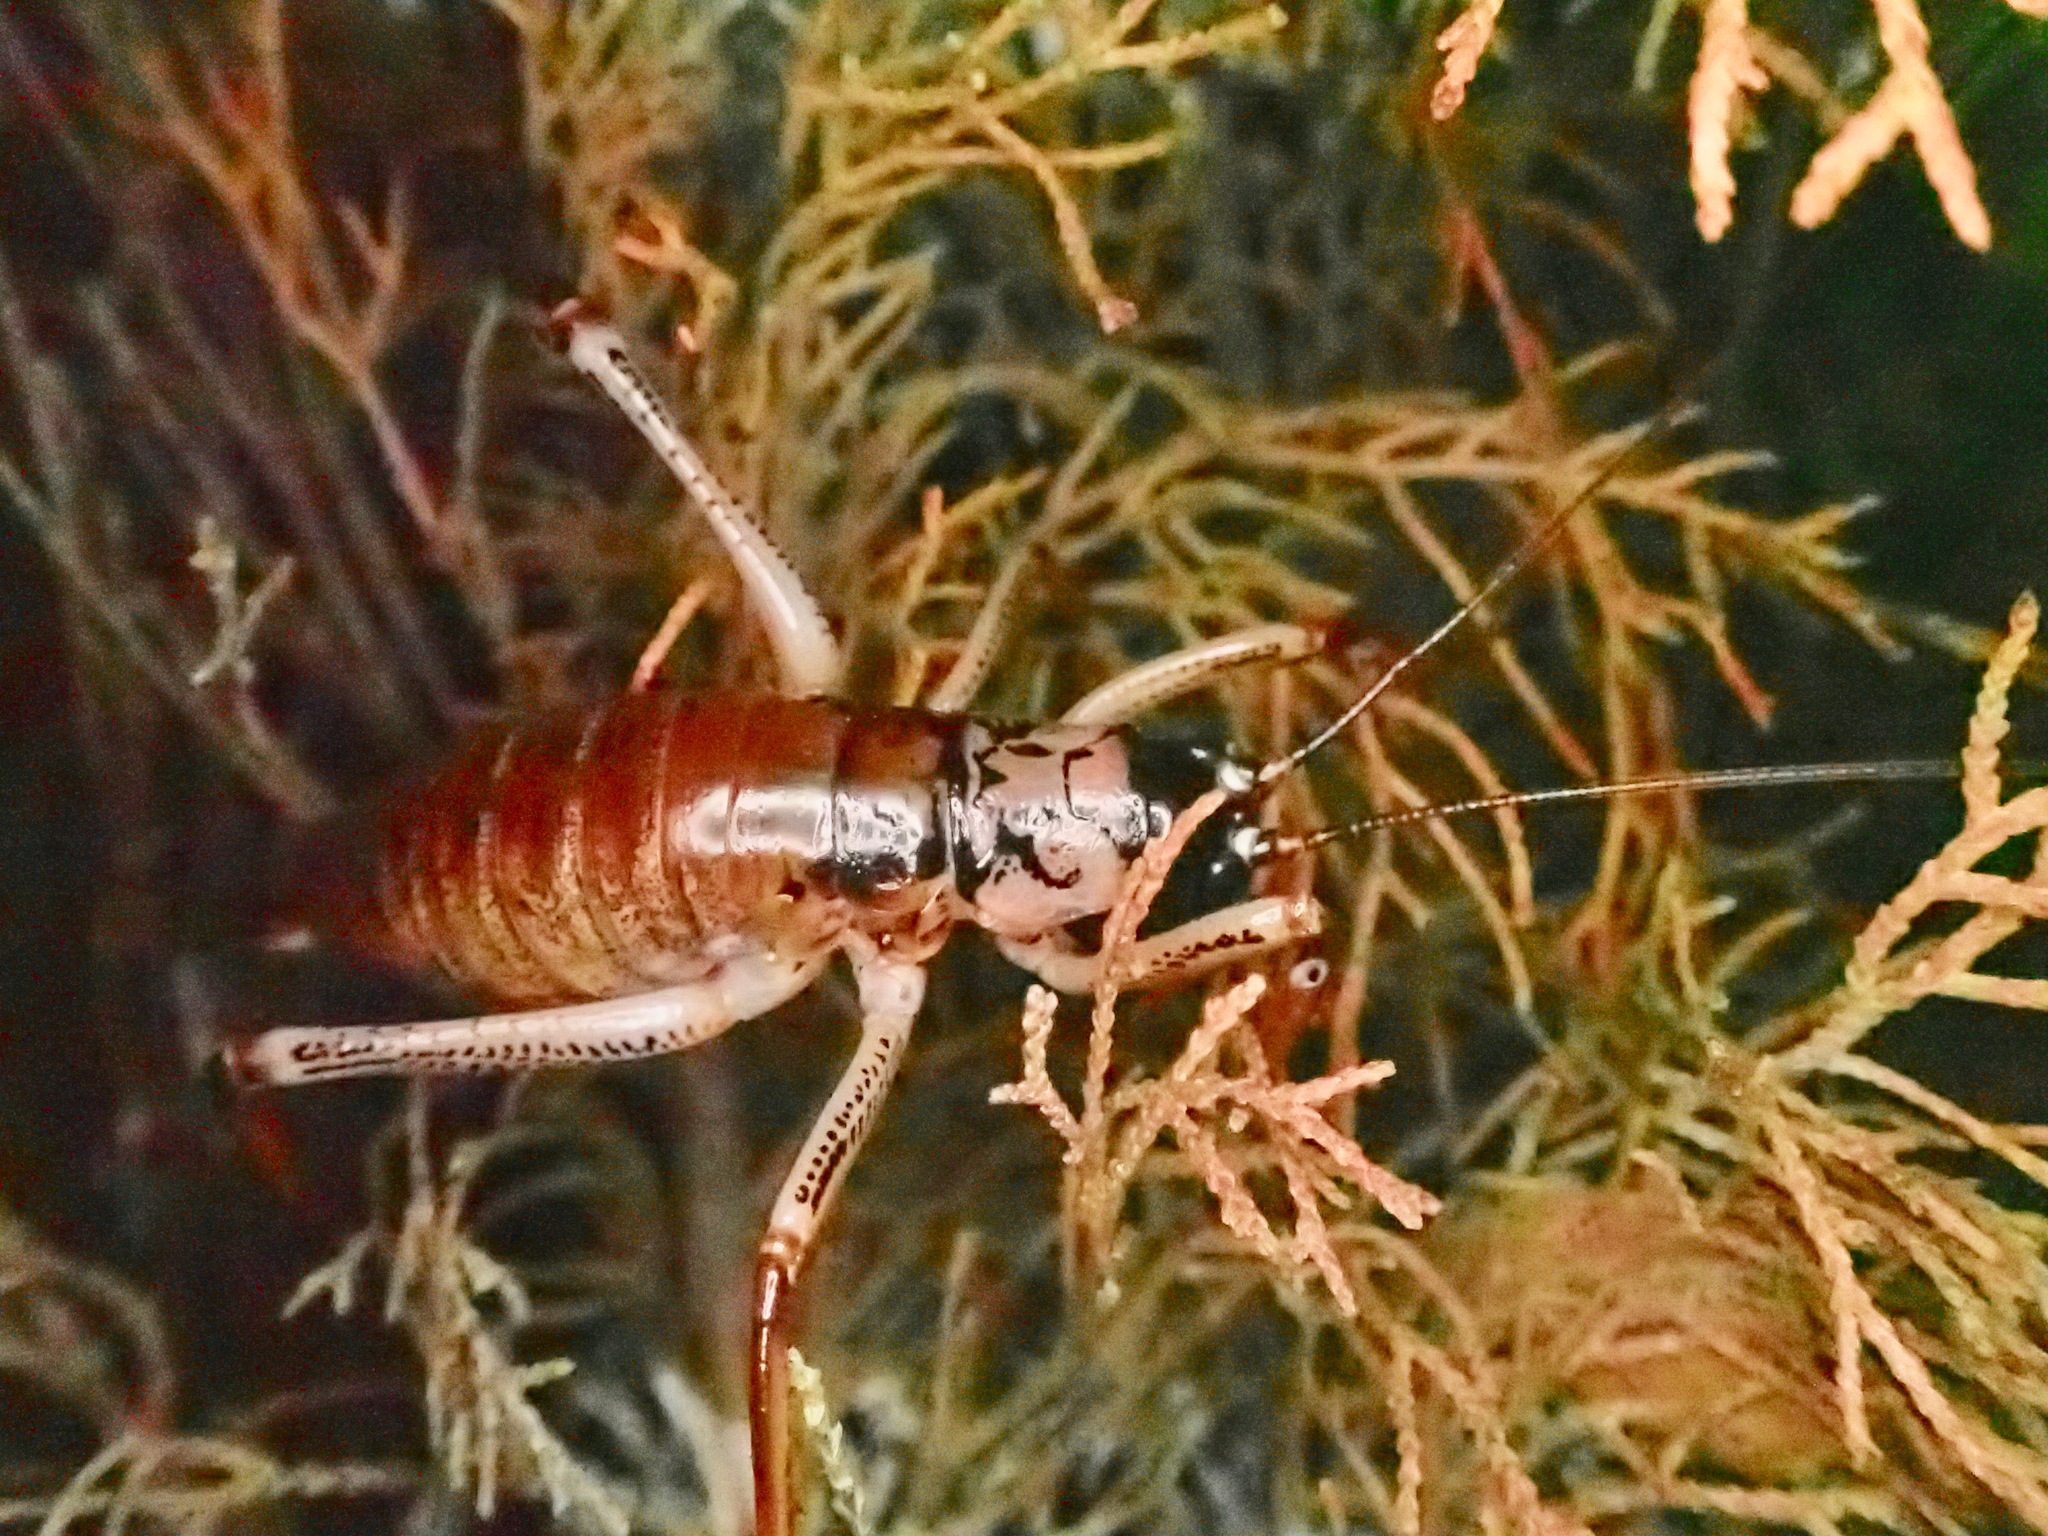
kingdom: Animalia
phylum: Arthropoda
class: Insecta
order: Orthoptera
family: Anostostomatidae
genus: Hemideina
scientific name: Hemideina thoracica
